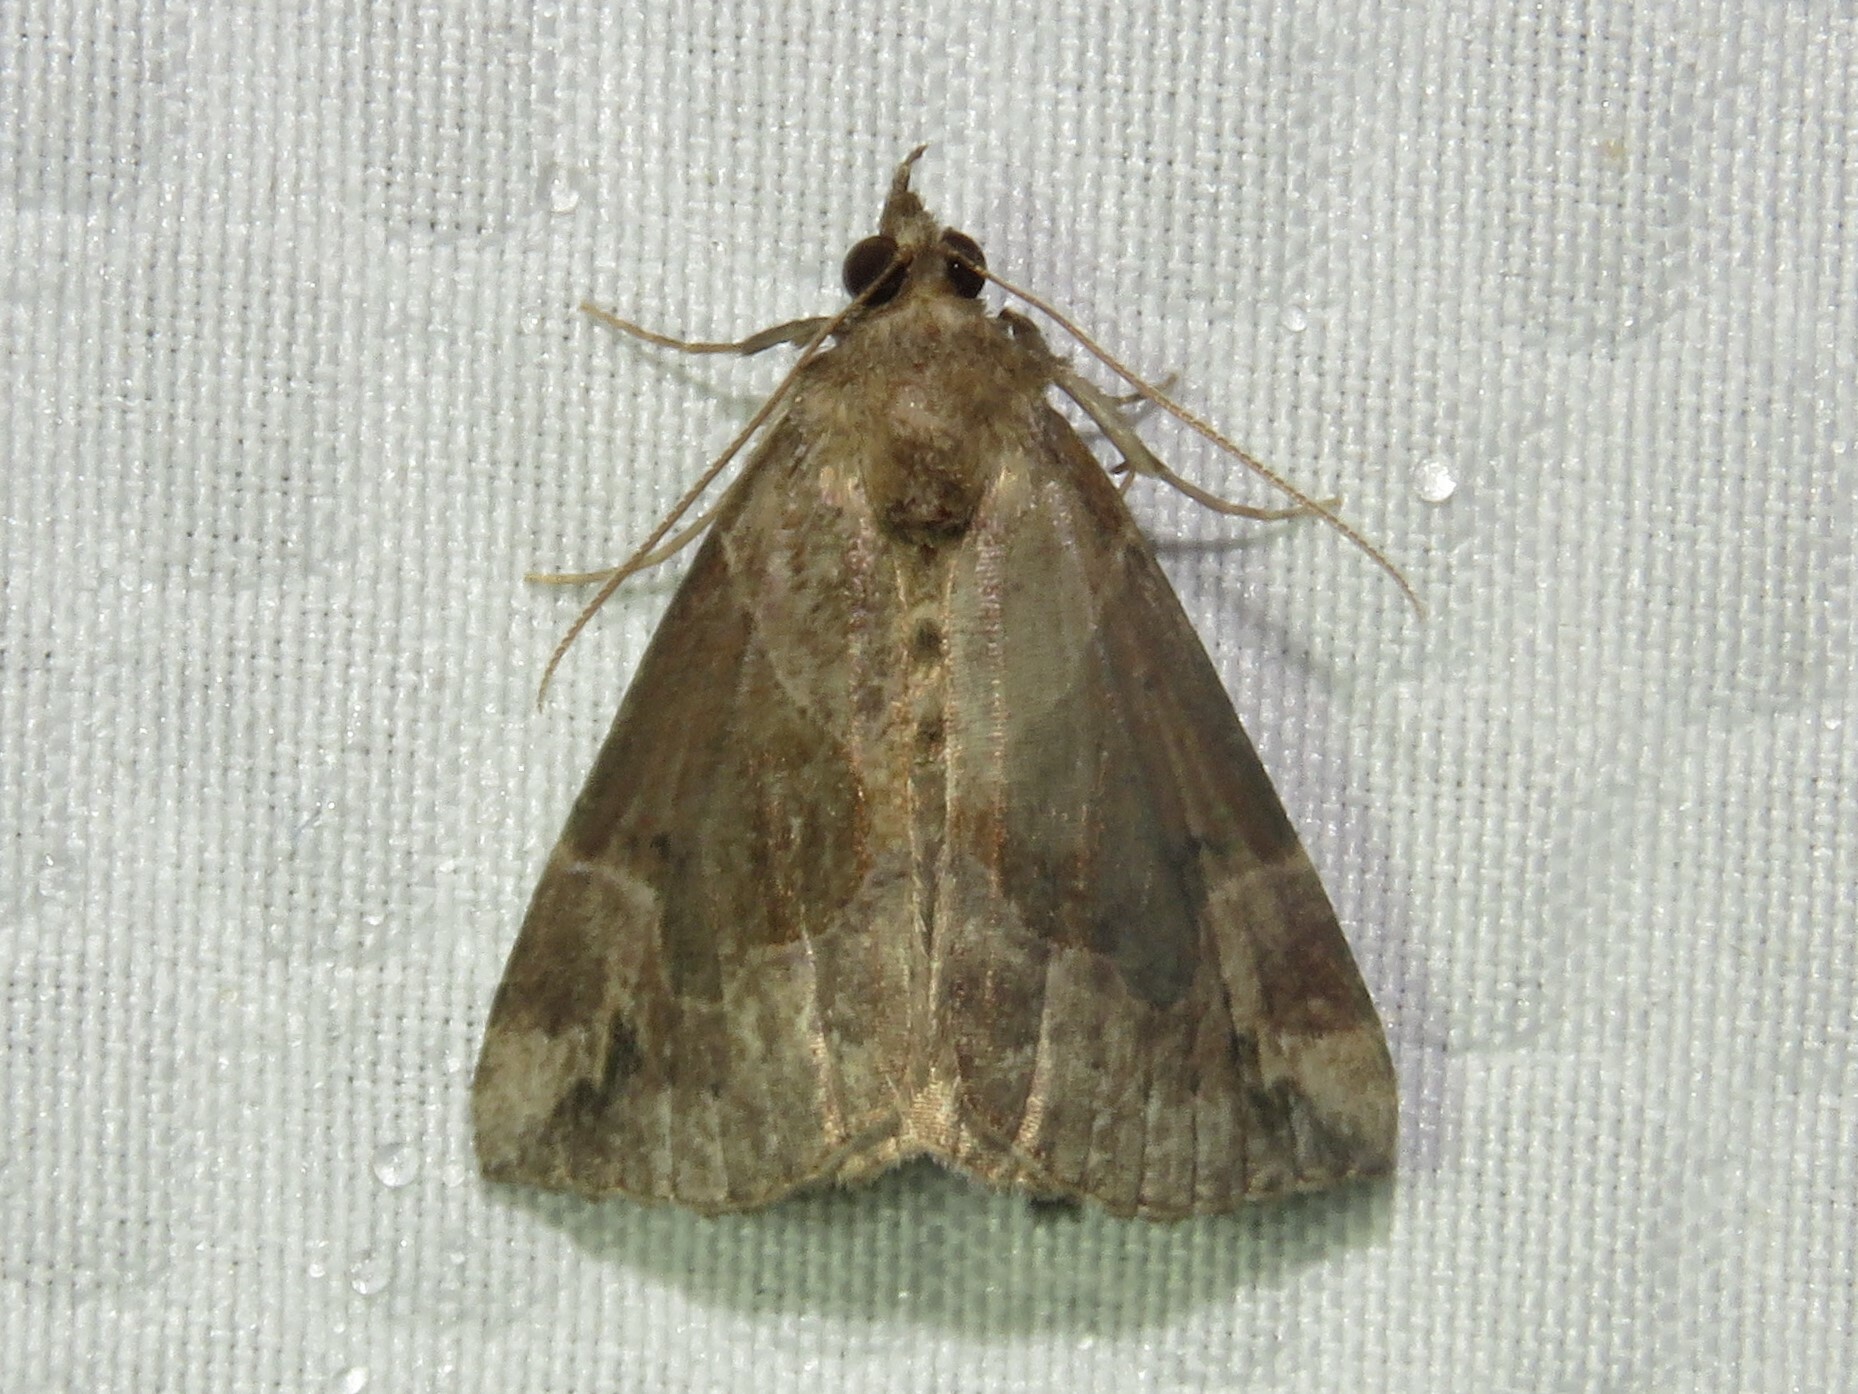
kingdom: Animalia
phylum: Arthropoda
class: Insecta
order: Lepidoptera
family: Erebidae
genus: Hypena
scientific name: Hypena manalis
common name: Flowing-line bomolocha moth
